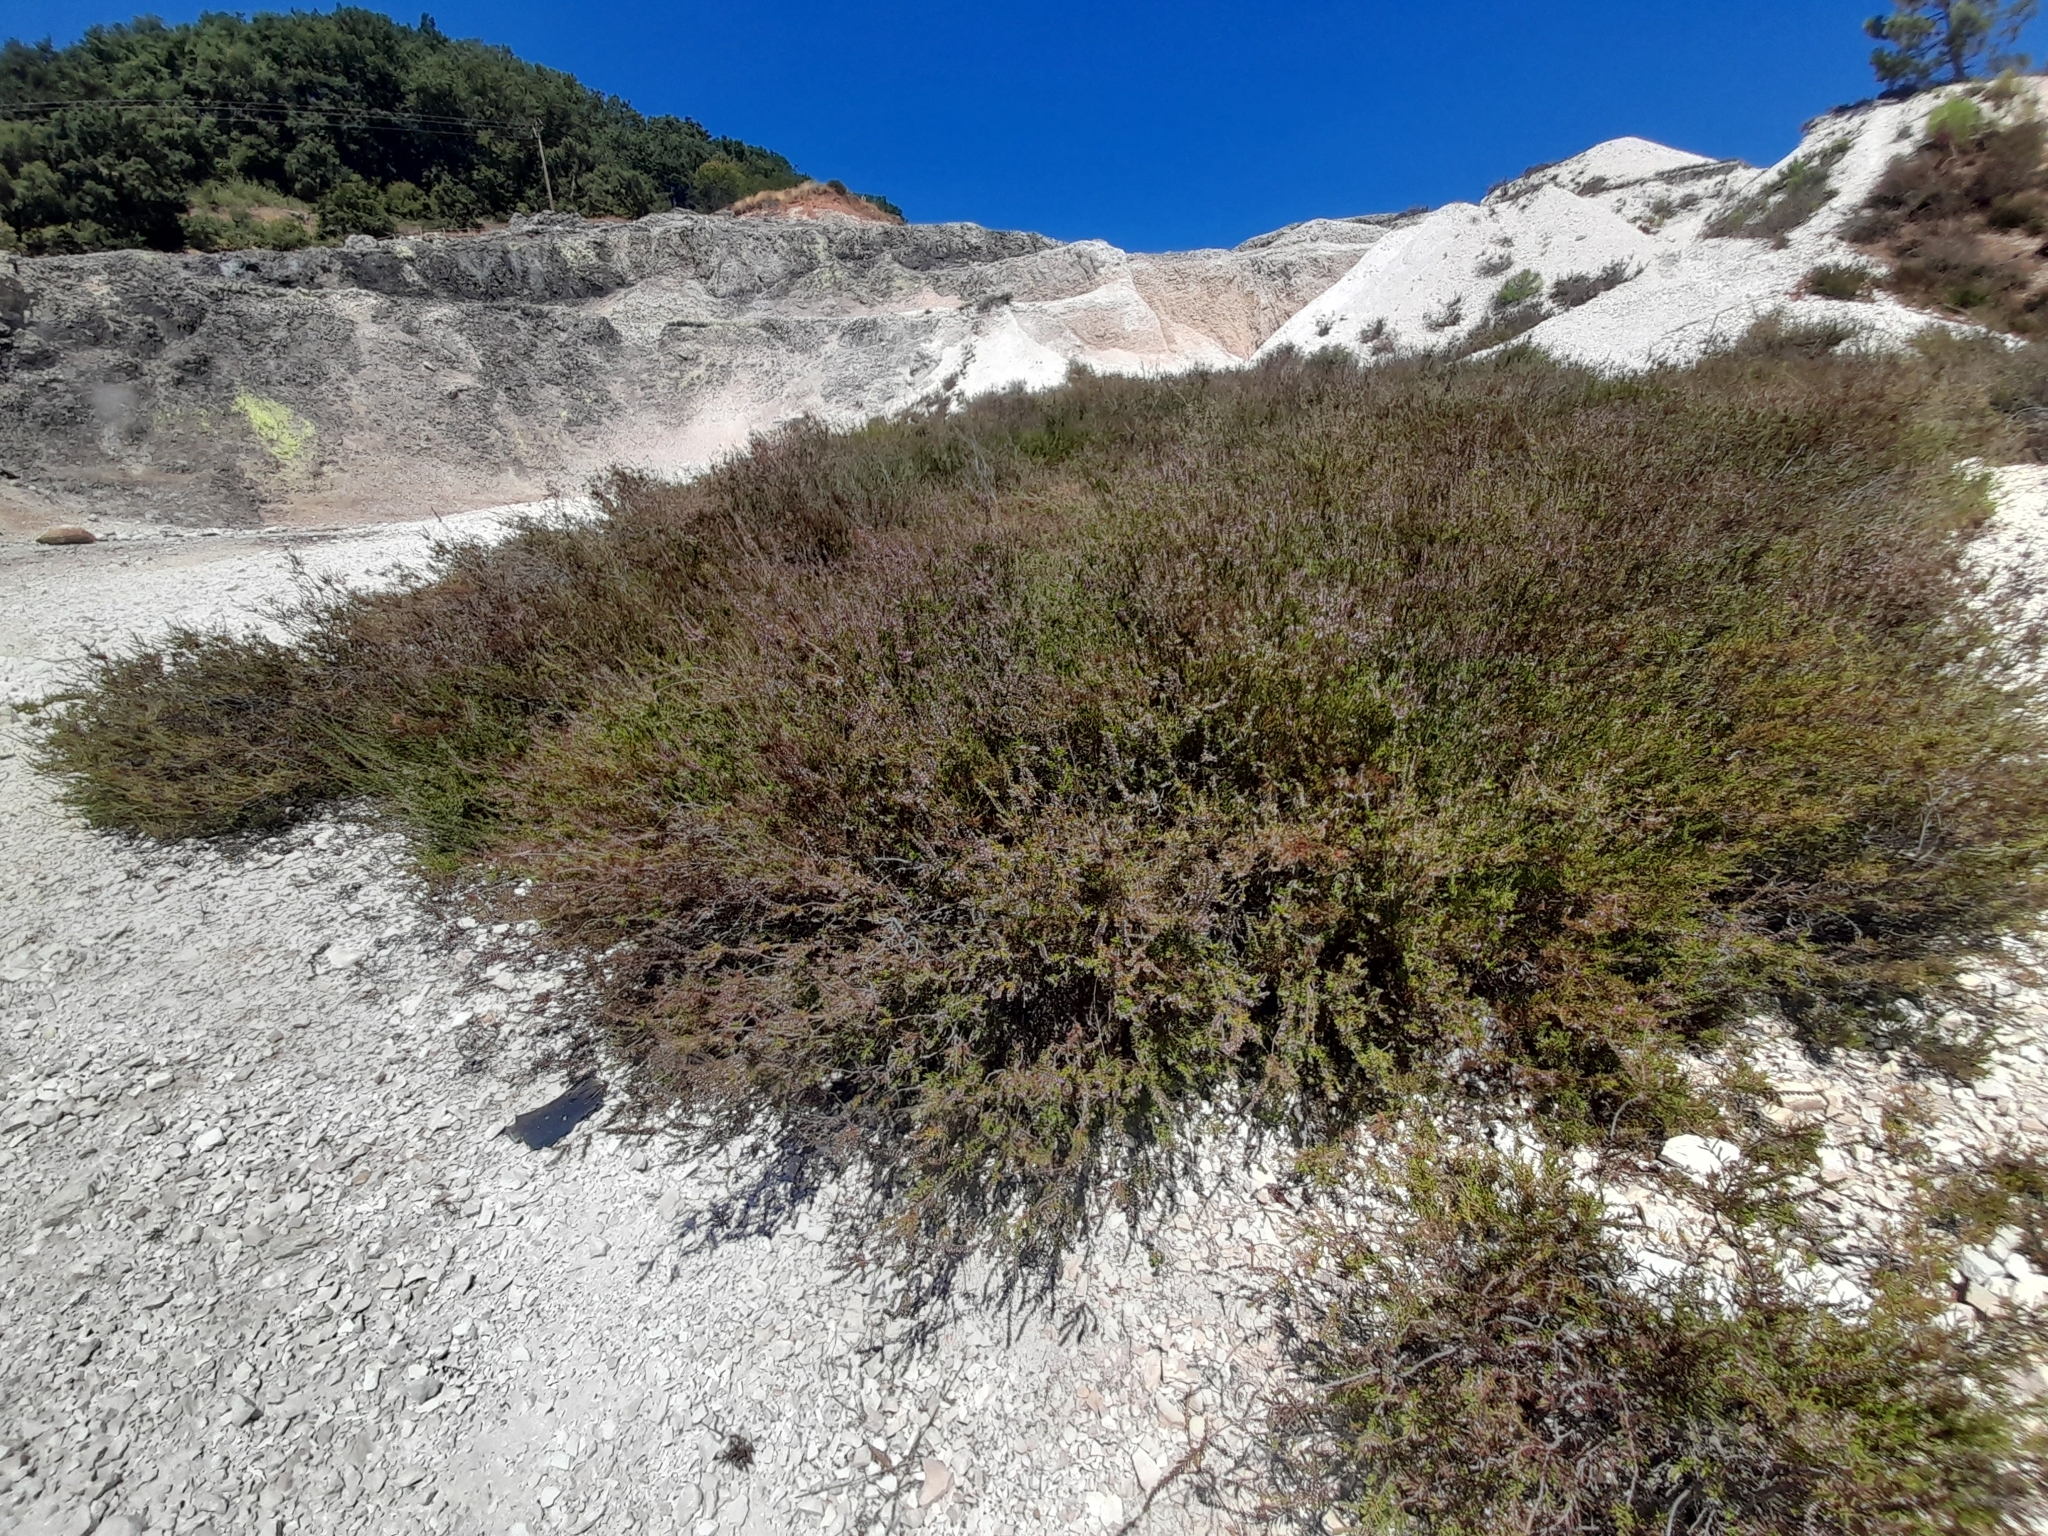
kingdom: Plantae
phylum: Tracheophyta
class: Magnoliopsida
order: Ericales
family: Ericaceae
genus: Calluna
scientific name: Calluna vulgaris
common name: Heather
